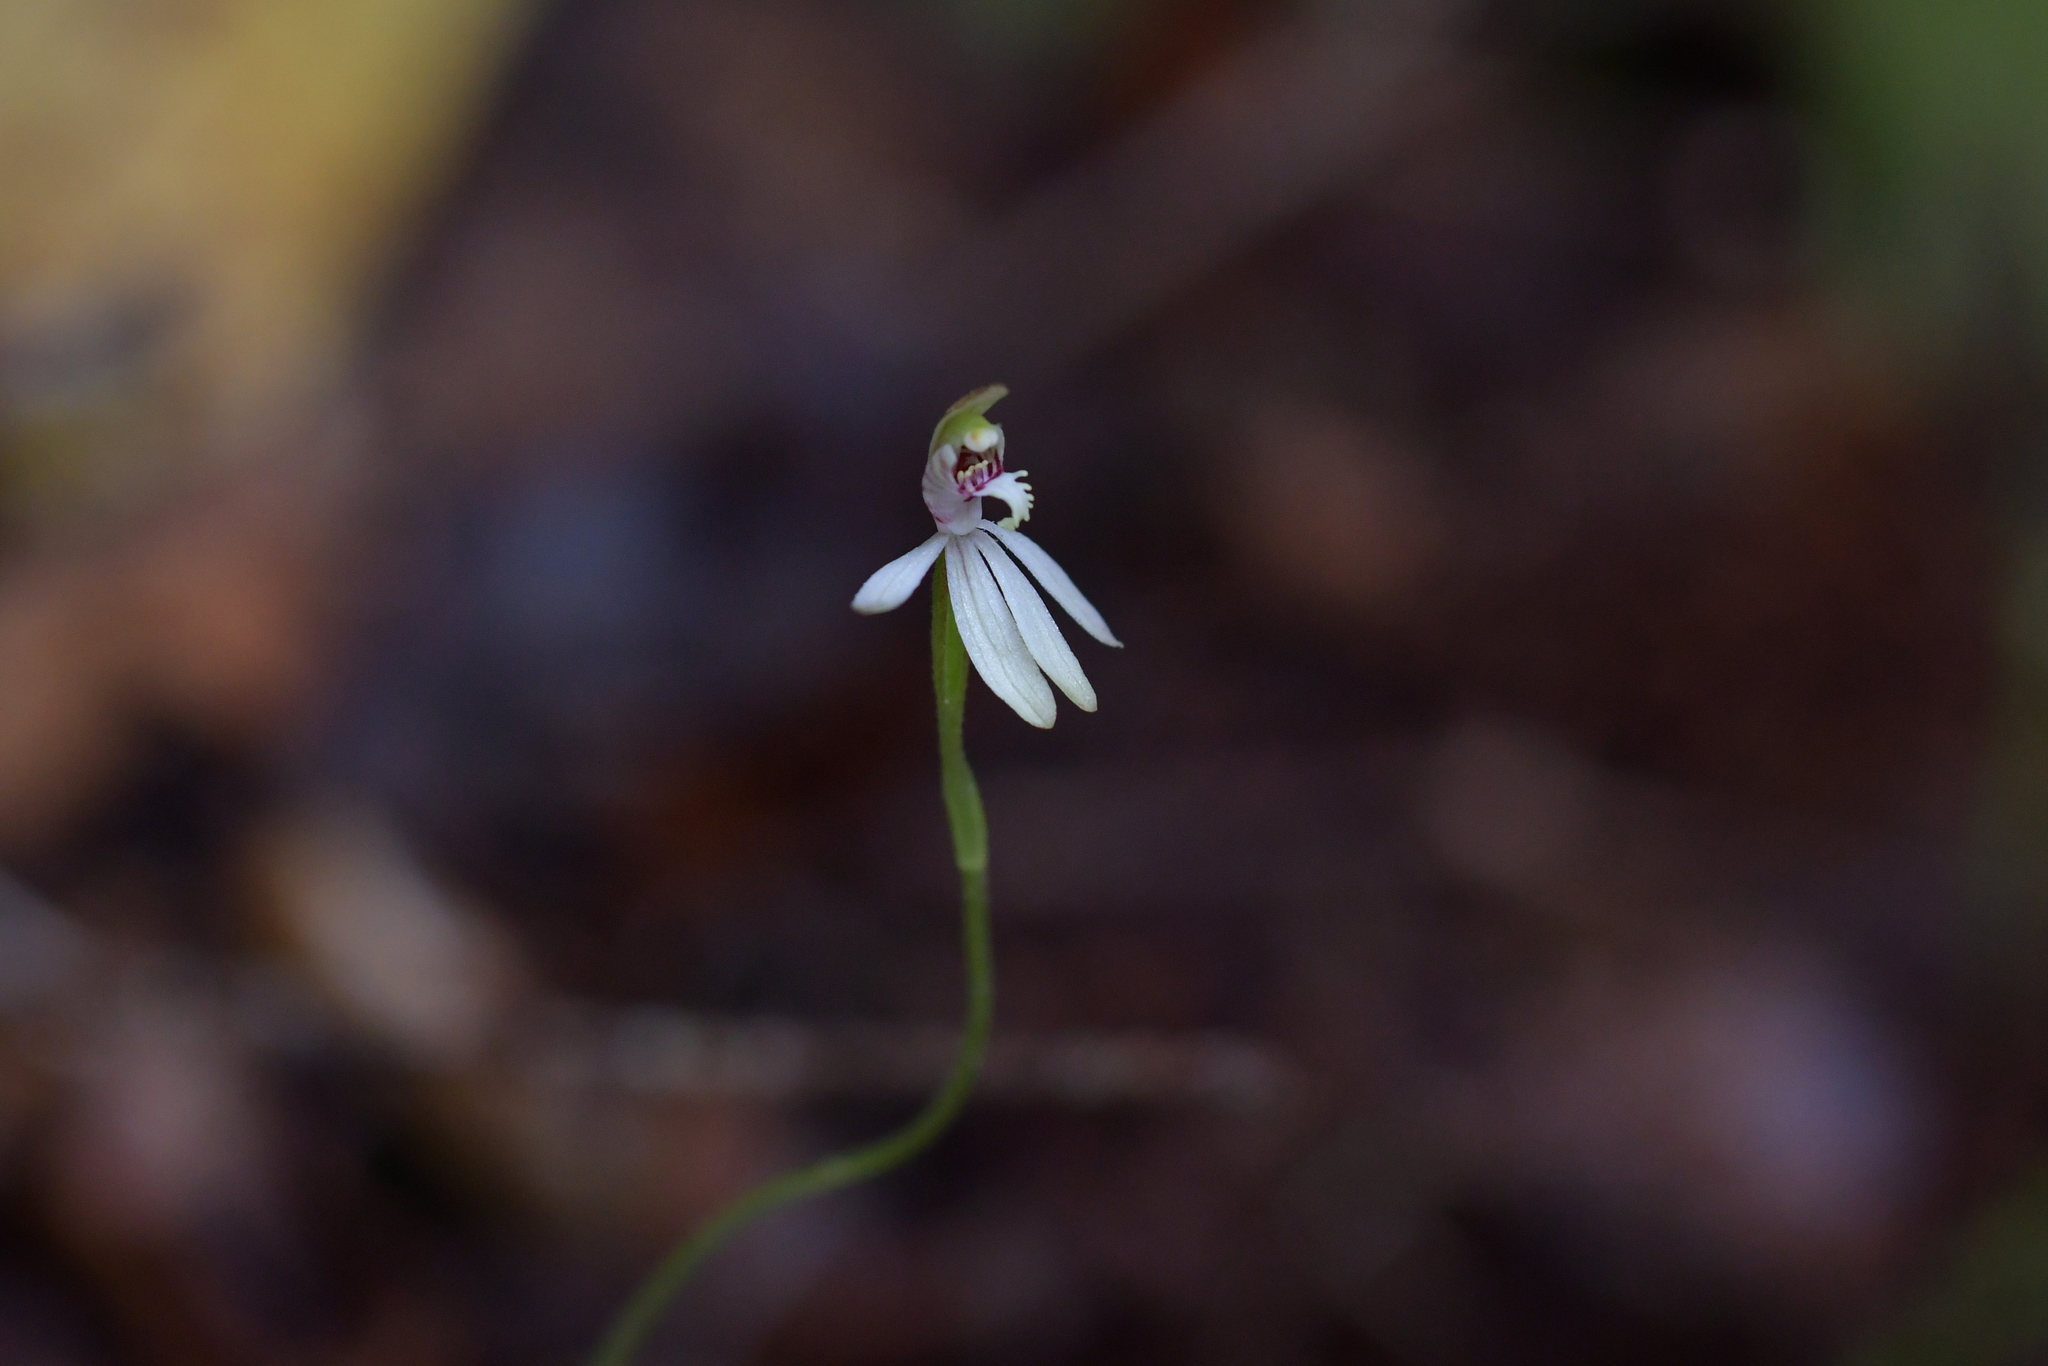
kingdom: Plantae
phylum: Tracheophyta
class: Liliopsida
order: Asparagales
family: Orchidaceae
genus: Caladenia
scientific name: Caladenia chlorostyla
